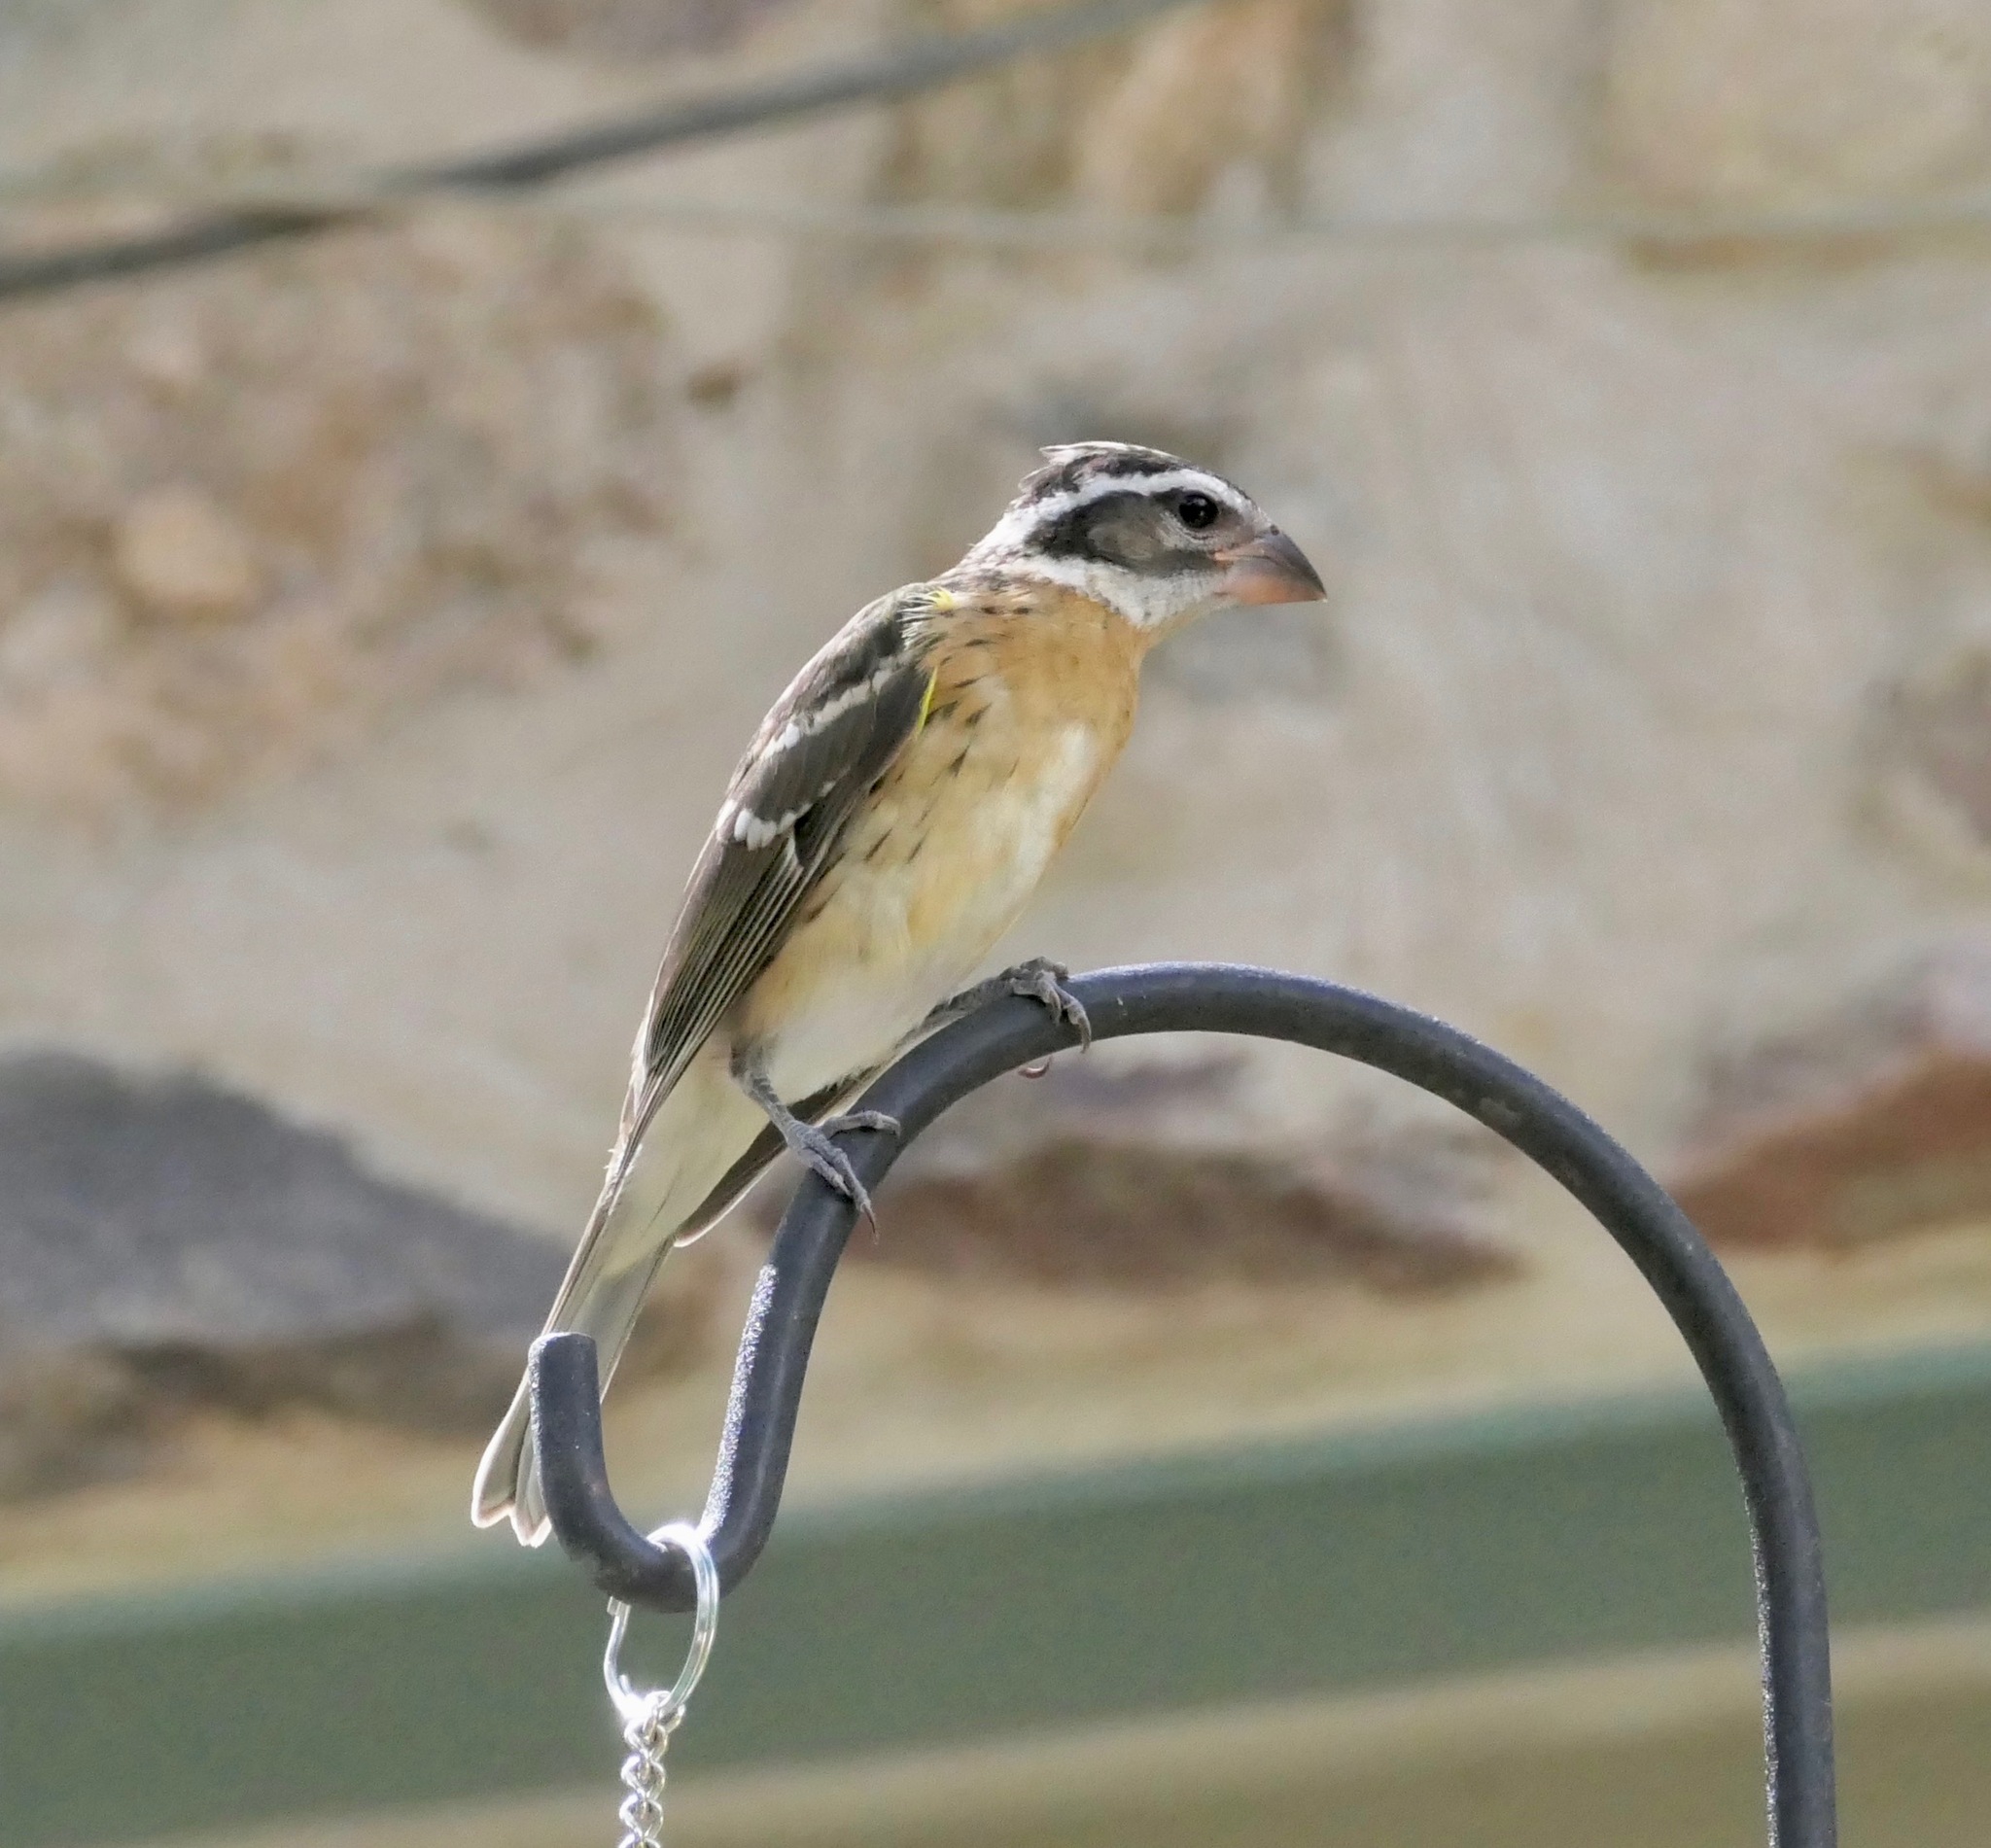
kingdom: Animalia
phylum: Chordata
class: Aves
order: Passeriformes
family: Cardinalidae
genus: Pheucticus
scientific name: Pheucticus melanocephalus
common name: Black-headed grosbeak
